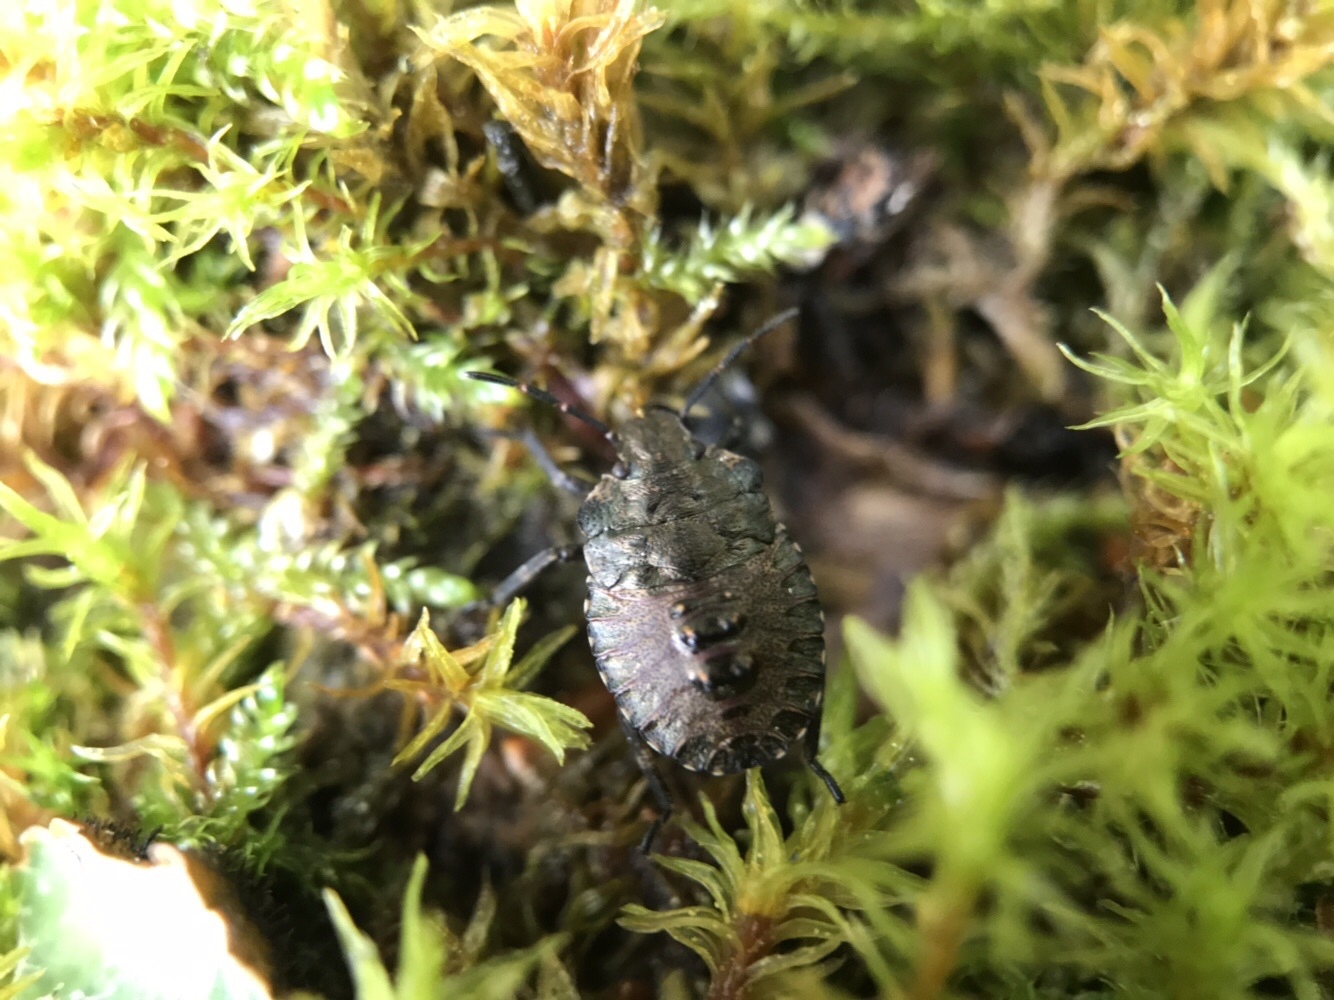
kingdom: Animalia
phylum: Arthropoda
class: Insecta
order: Hemiptera
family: Pentatomidae
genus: Pentatoma
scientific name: Pentatoma rufipes
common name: Forest bug
